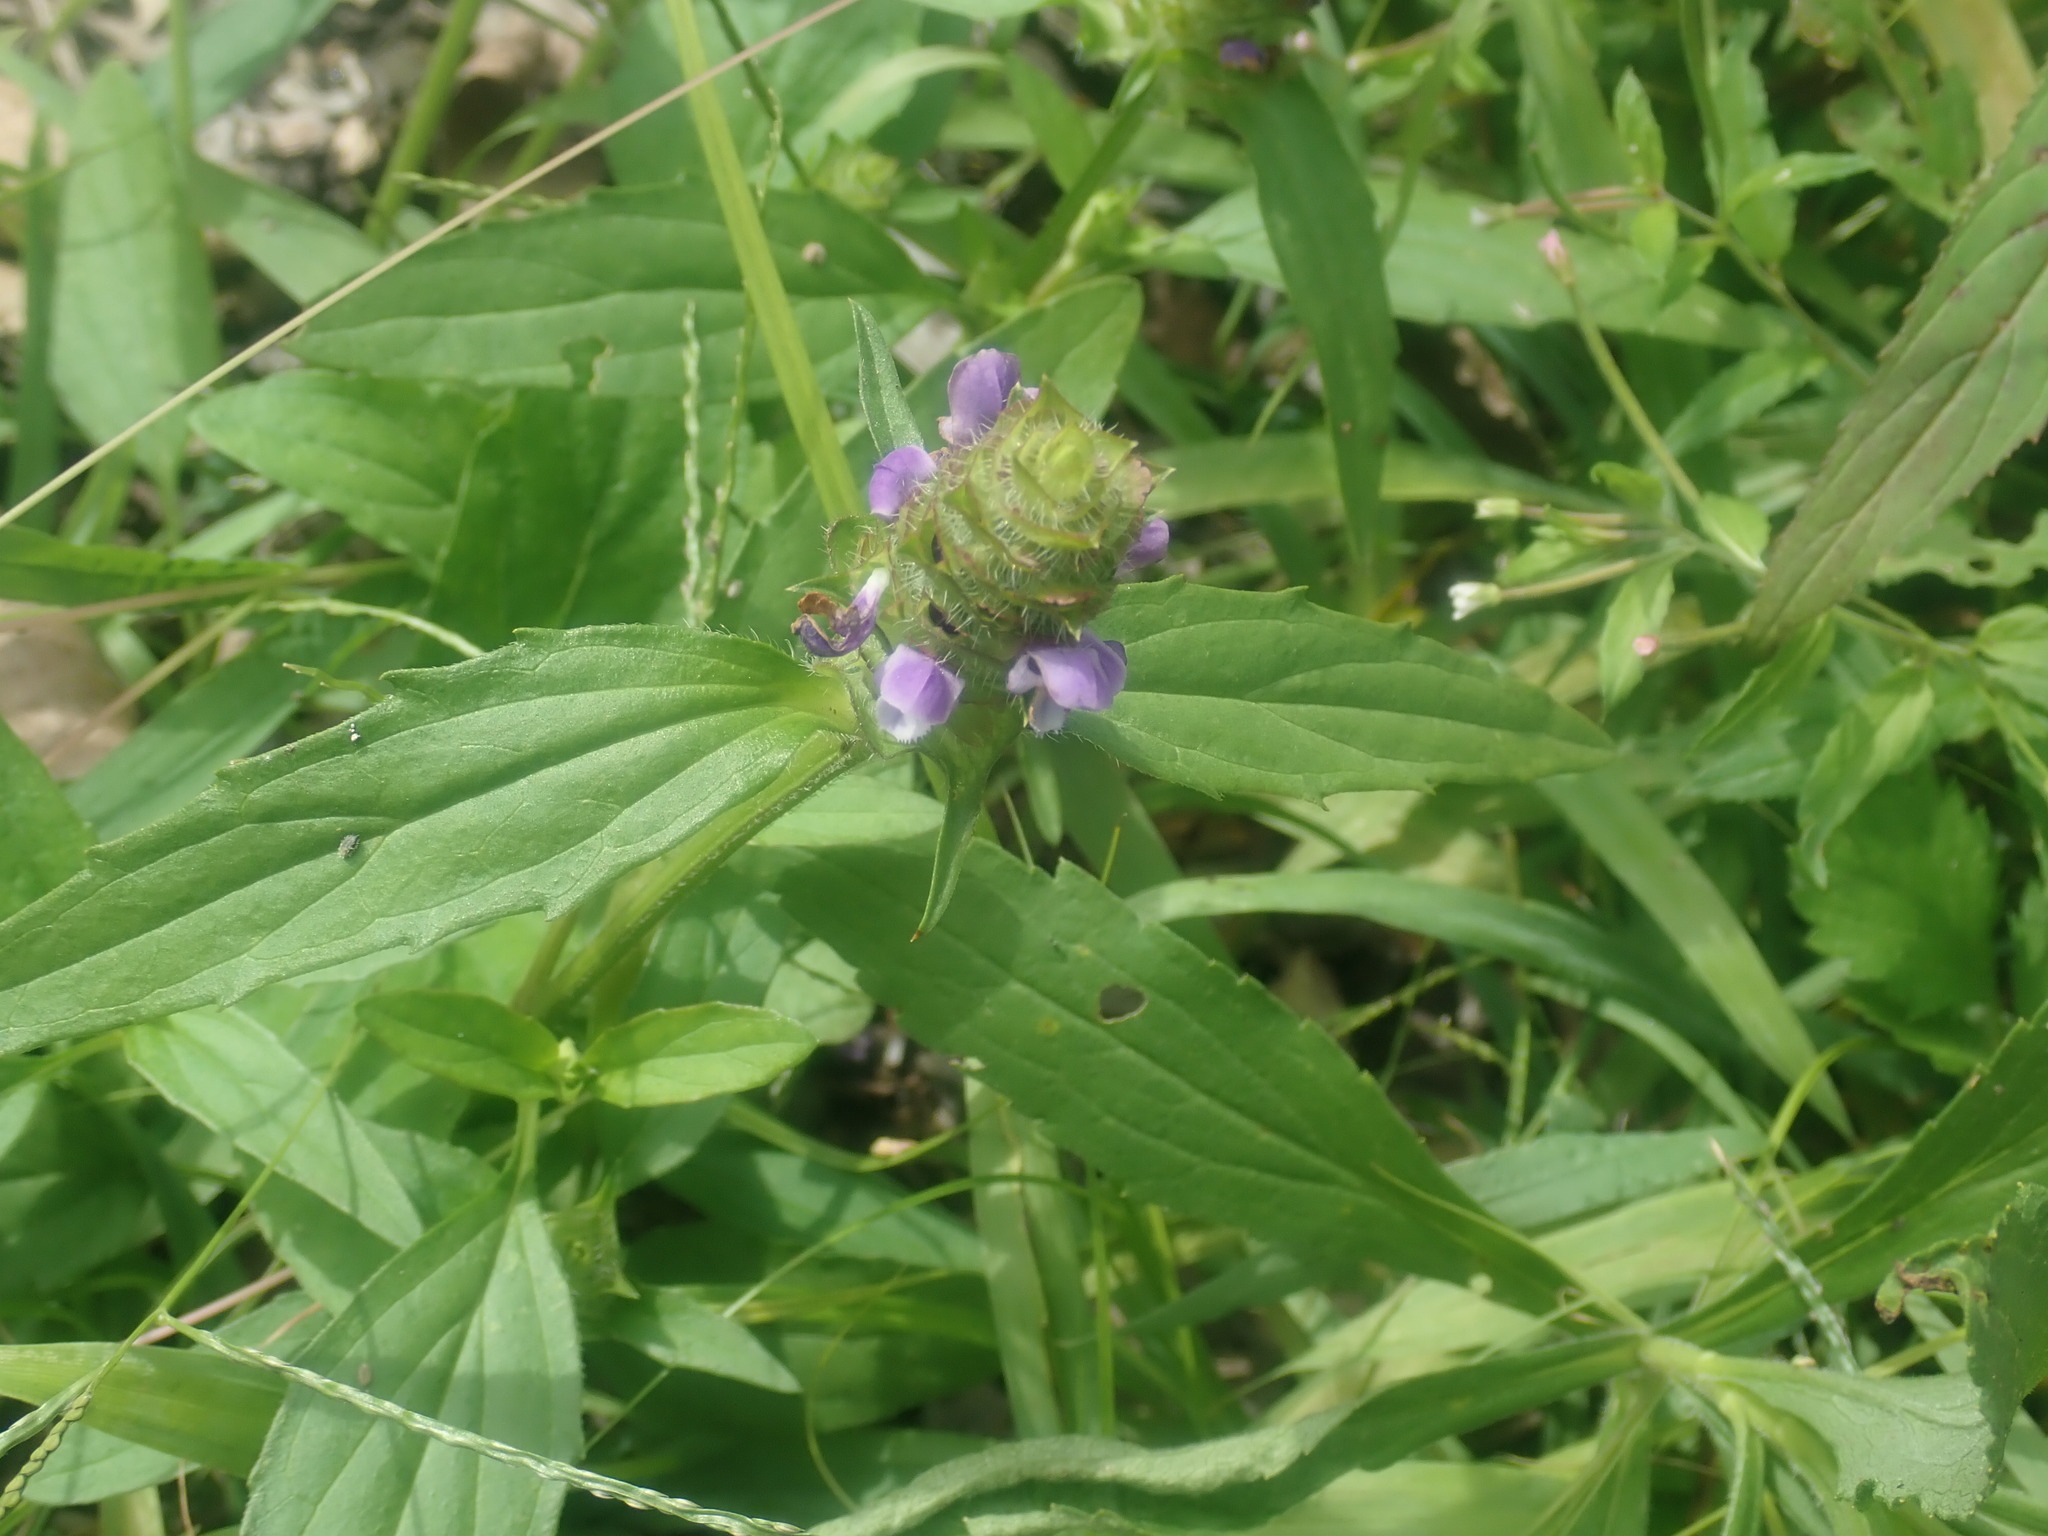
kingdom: Plantae
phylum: Tracheophyta
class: Magnoliopsida
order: Lamiales
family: Lamiaceae
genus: Prunella
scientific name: Prunella vulgaris
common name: Heal-all
